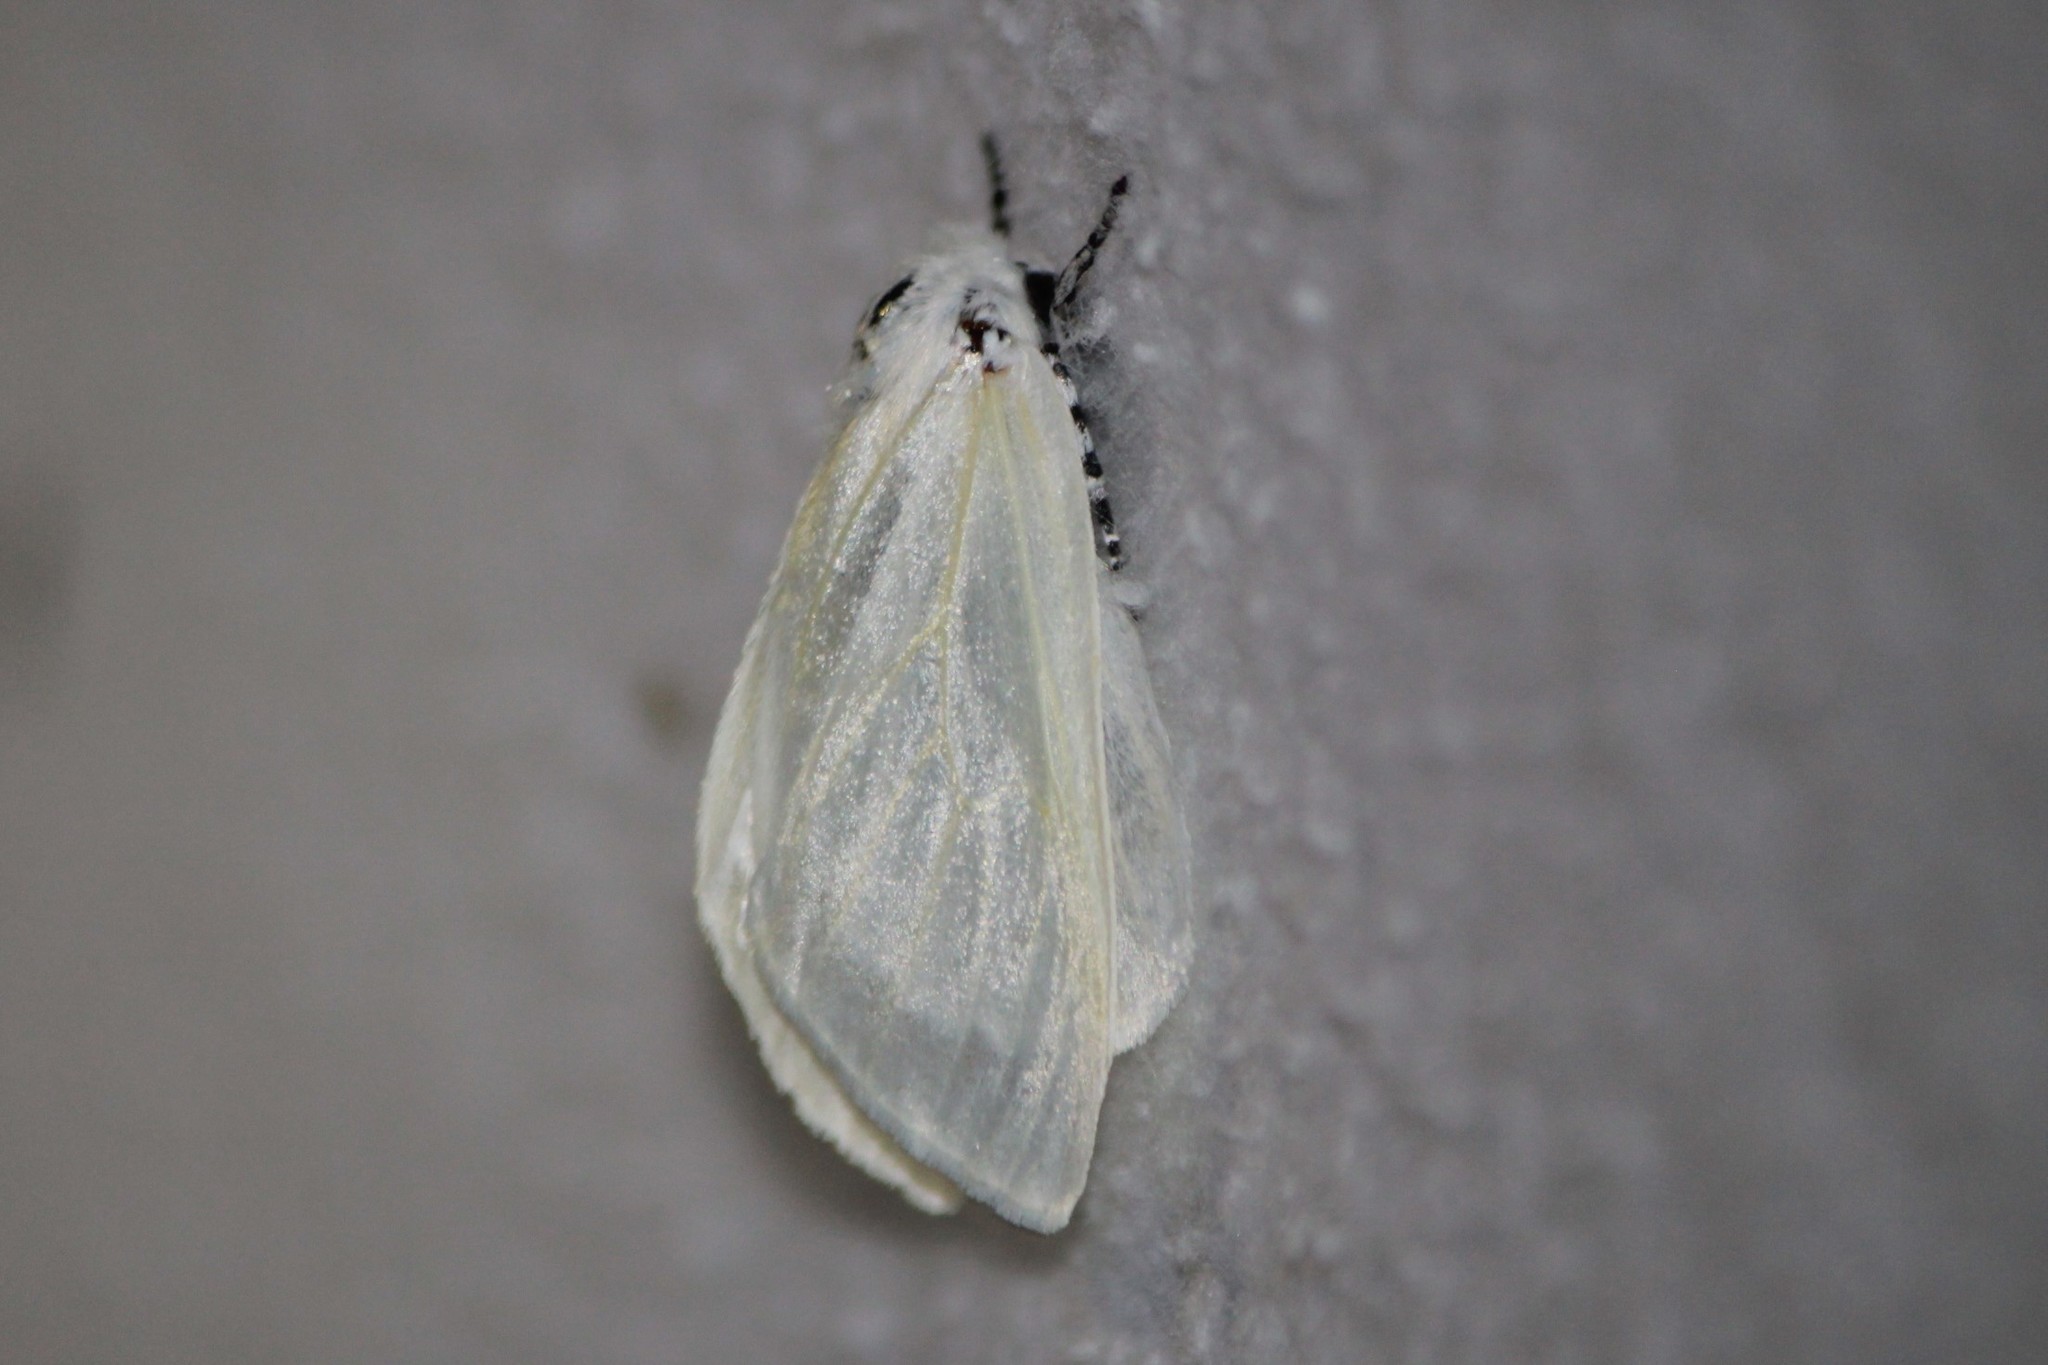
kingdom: Animalia
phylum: Arthropoda
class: Insecta
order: Lepidoptera
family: Erebidae
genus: Leucoma
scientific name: Leucoma salicis
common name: White satin moth
